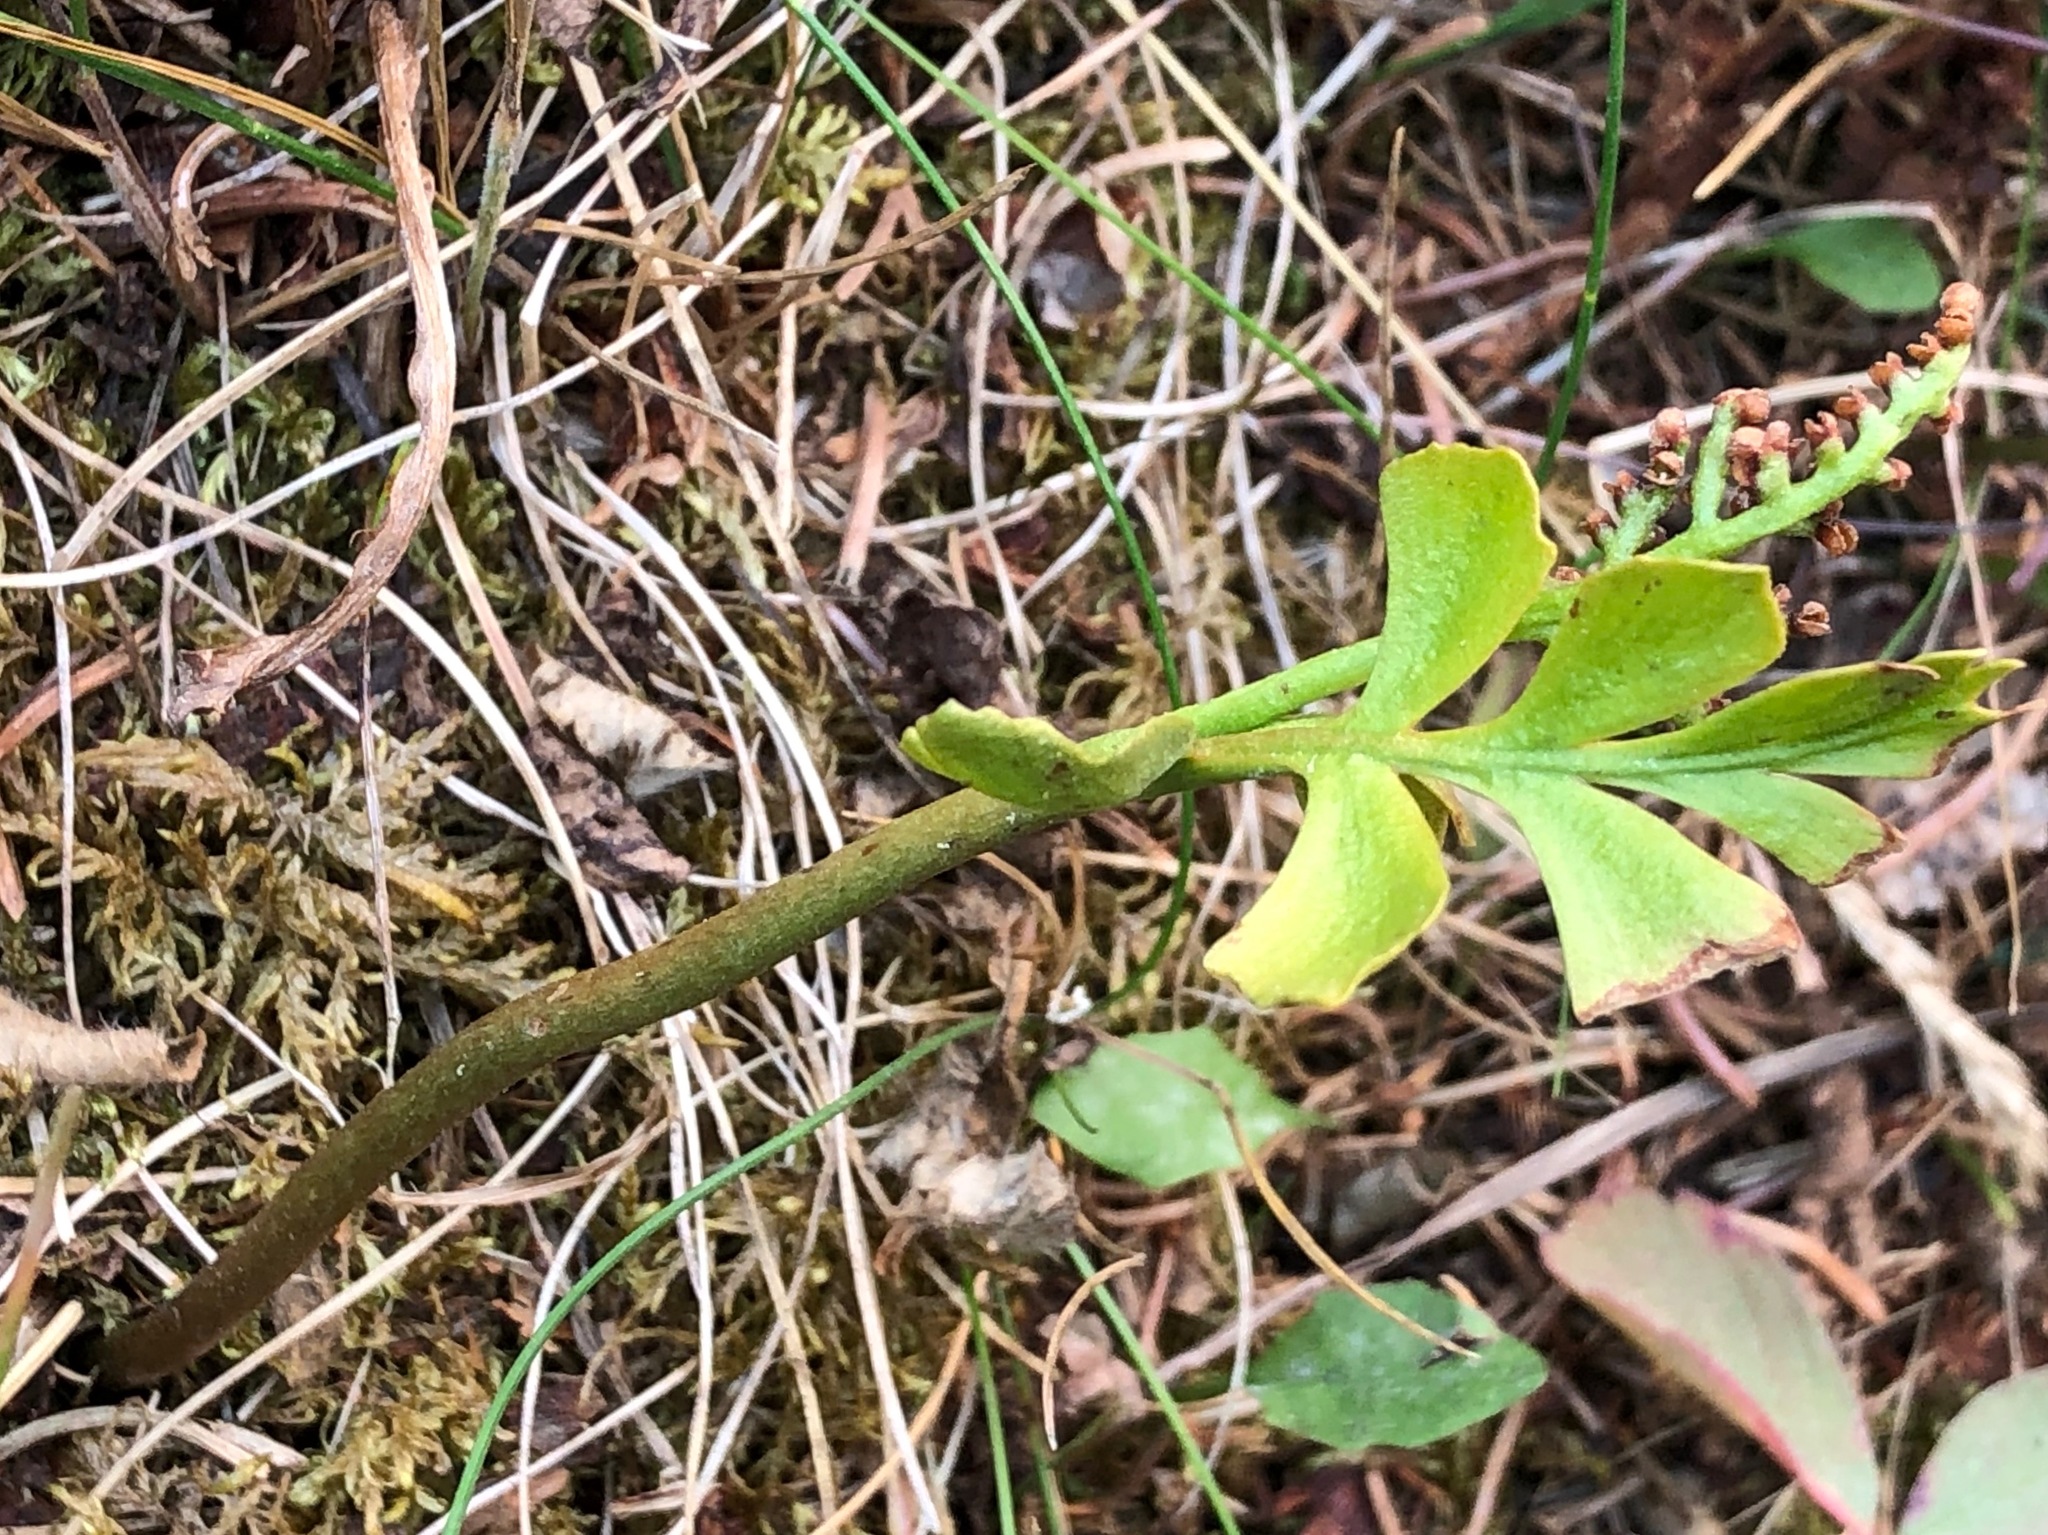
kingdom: Plantae
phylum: Tracheophyta
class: Polypodiopsida
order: Ophioglossales
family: Ophioglossaceae
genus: Botrychium
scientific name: Botrychium alaskense
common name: Alaska moonwort
